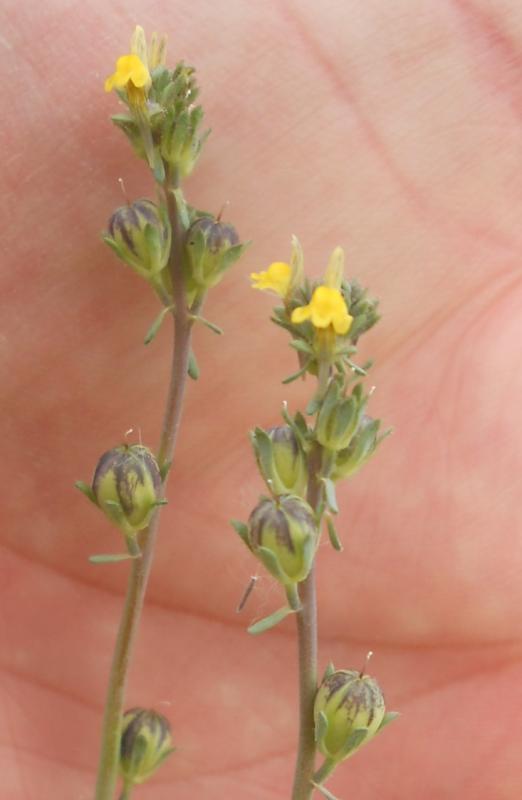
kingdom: Plantae
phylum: Tracheophyta
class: Magnoliopsida
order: Lamiales
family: Plantaginaceae
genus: Linaria
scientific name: Linaria simplex
